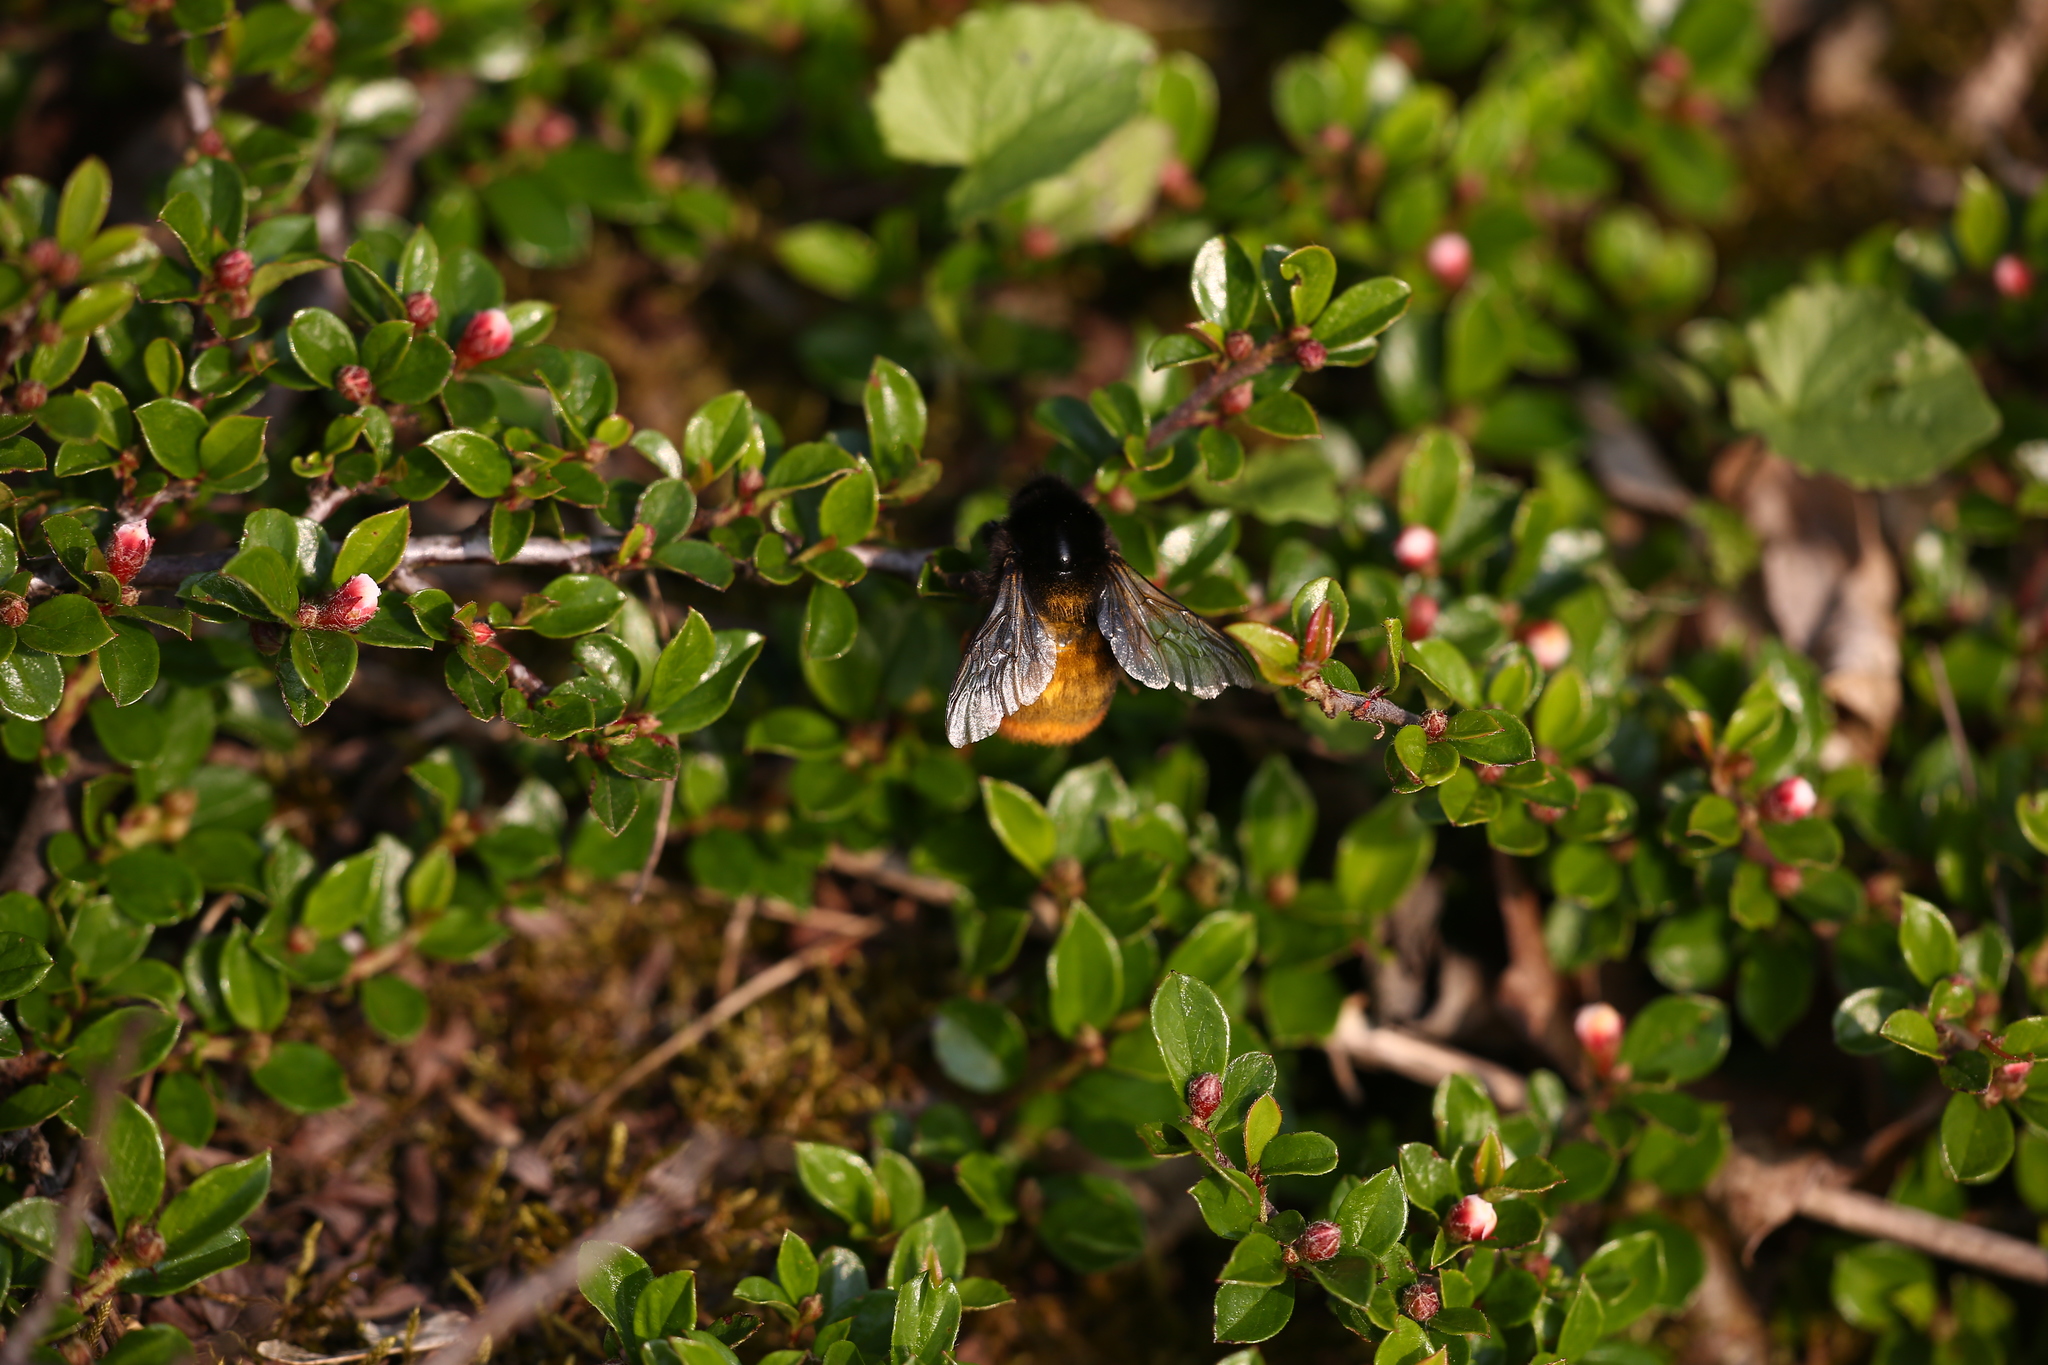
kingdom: Animalia
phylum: Arthropoda
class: Insecta
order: Hymenoptera
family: Megachilidae
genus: Osmia
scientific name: Osmia cornuta
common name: Mason bee
